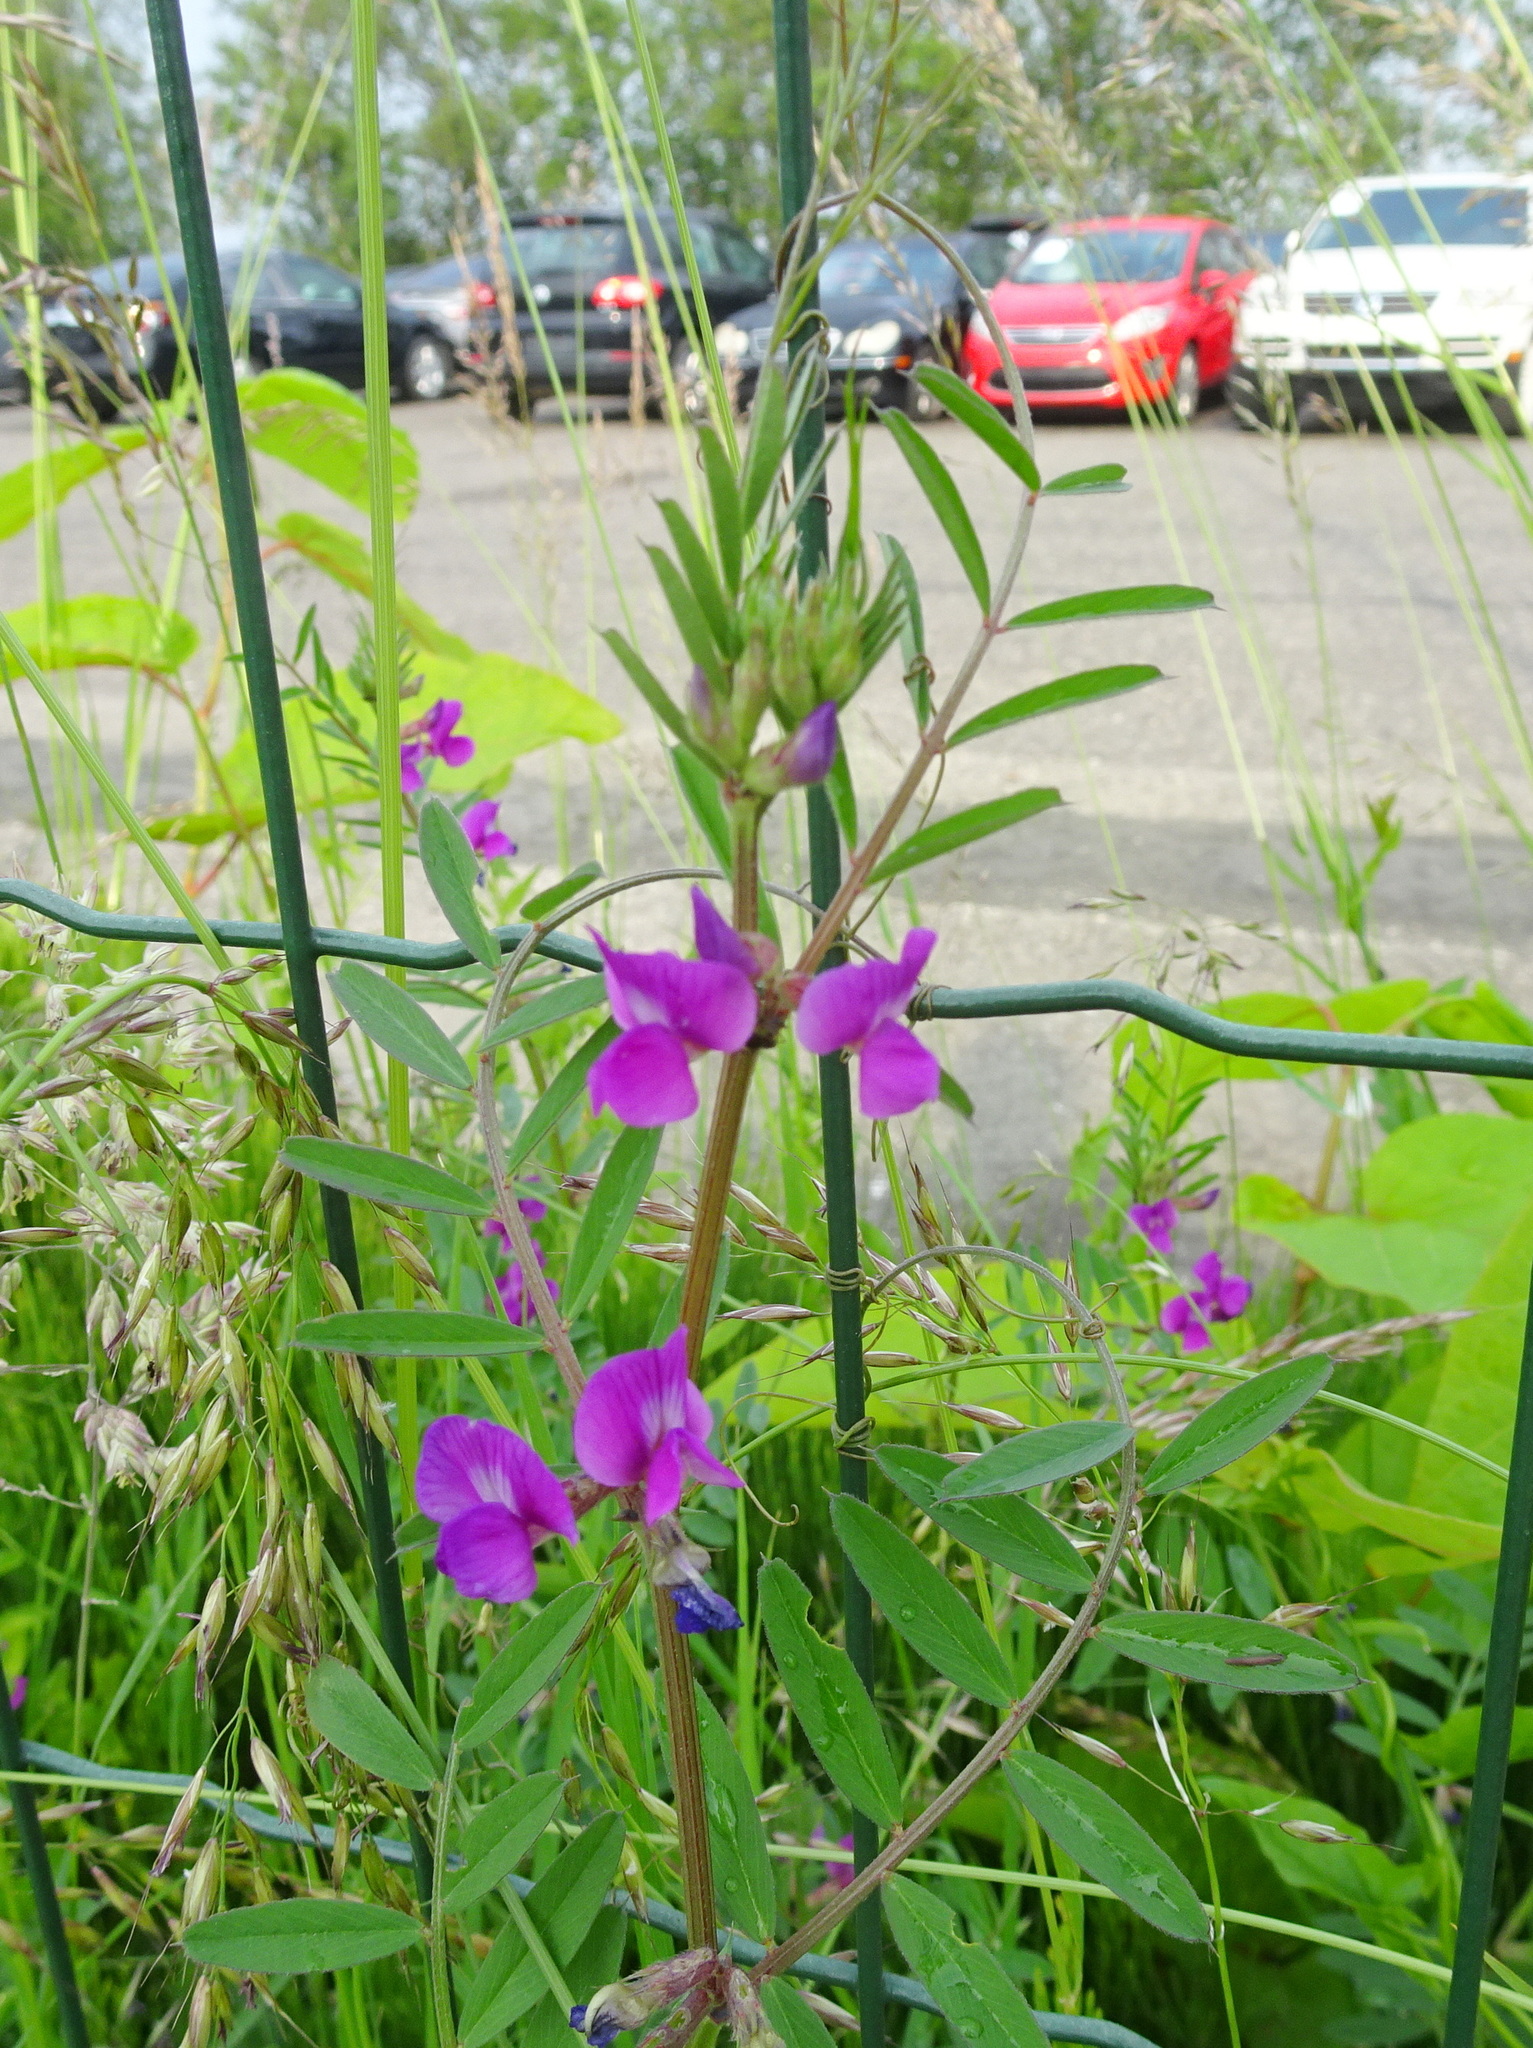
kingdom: Plantae
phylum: Tracheophyta
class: Magnoliopsida
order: Fabales
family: Fabaceae
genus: Vicia
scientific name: Vicia sativa
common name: Garden vetch
